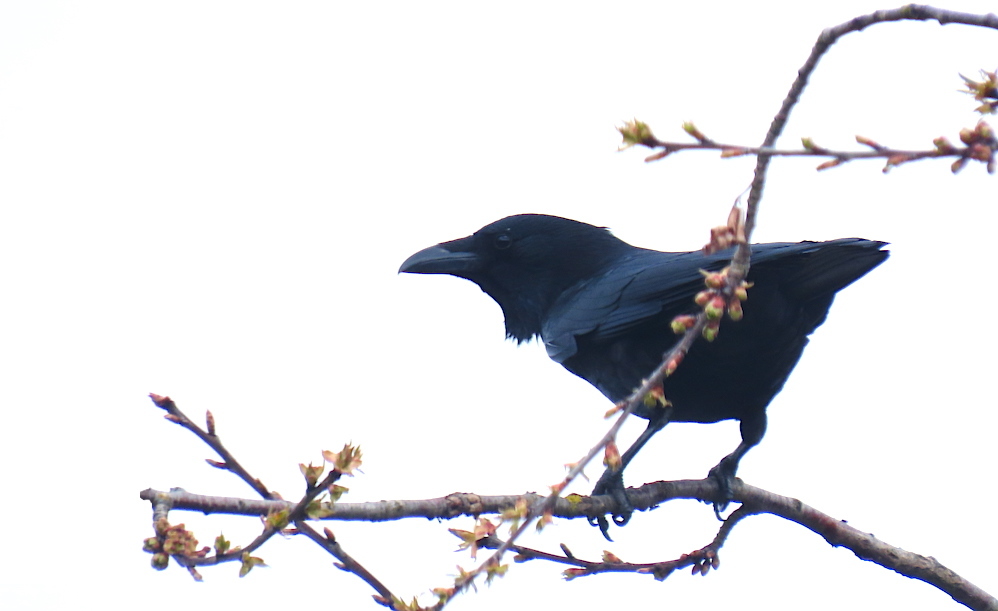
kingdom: Animalia
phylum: Chordata
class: Aves
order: Passeriformes
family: Corvidae
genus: Corvus
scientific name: Corvus corone
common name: Carrion crow
